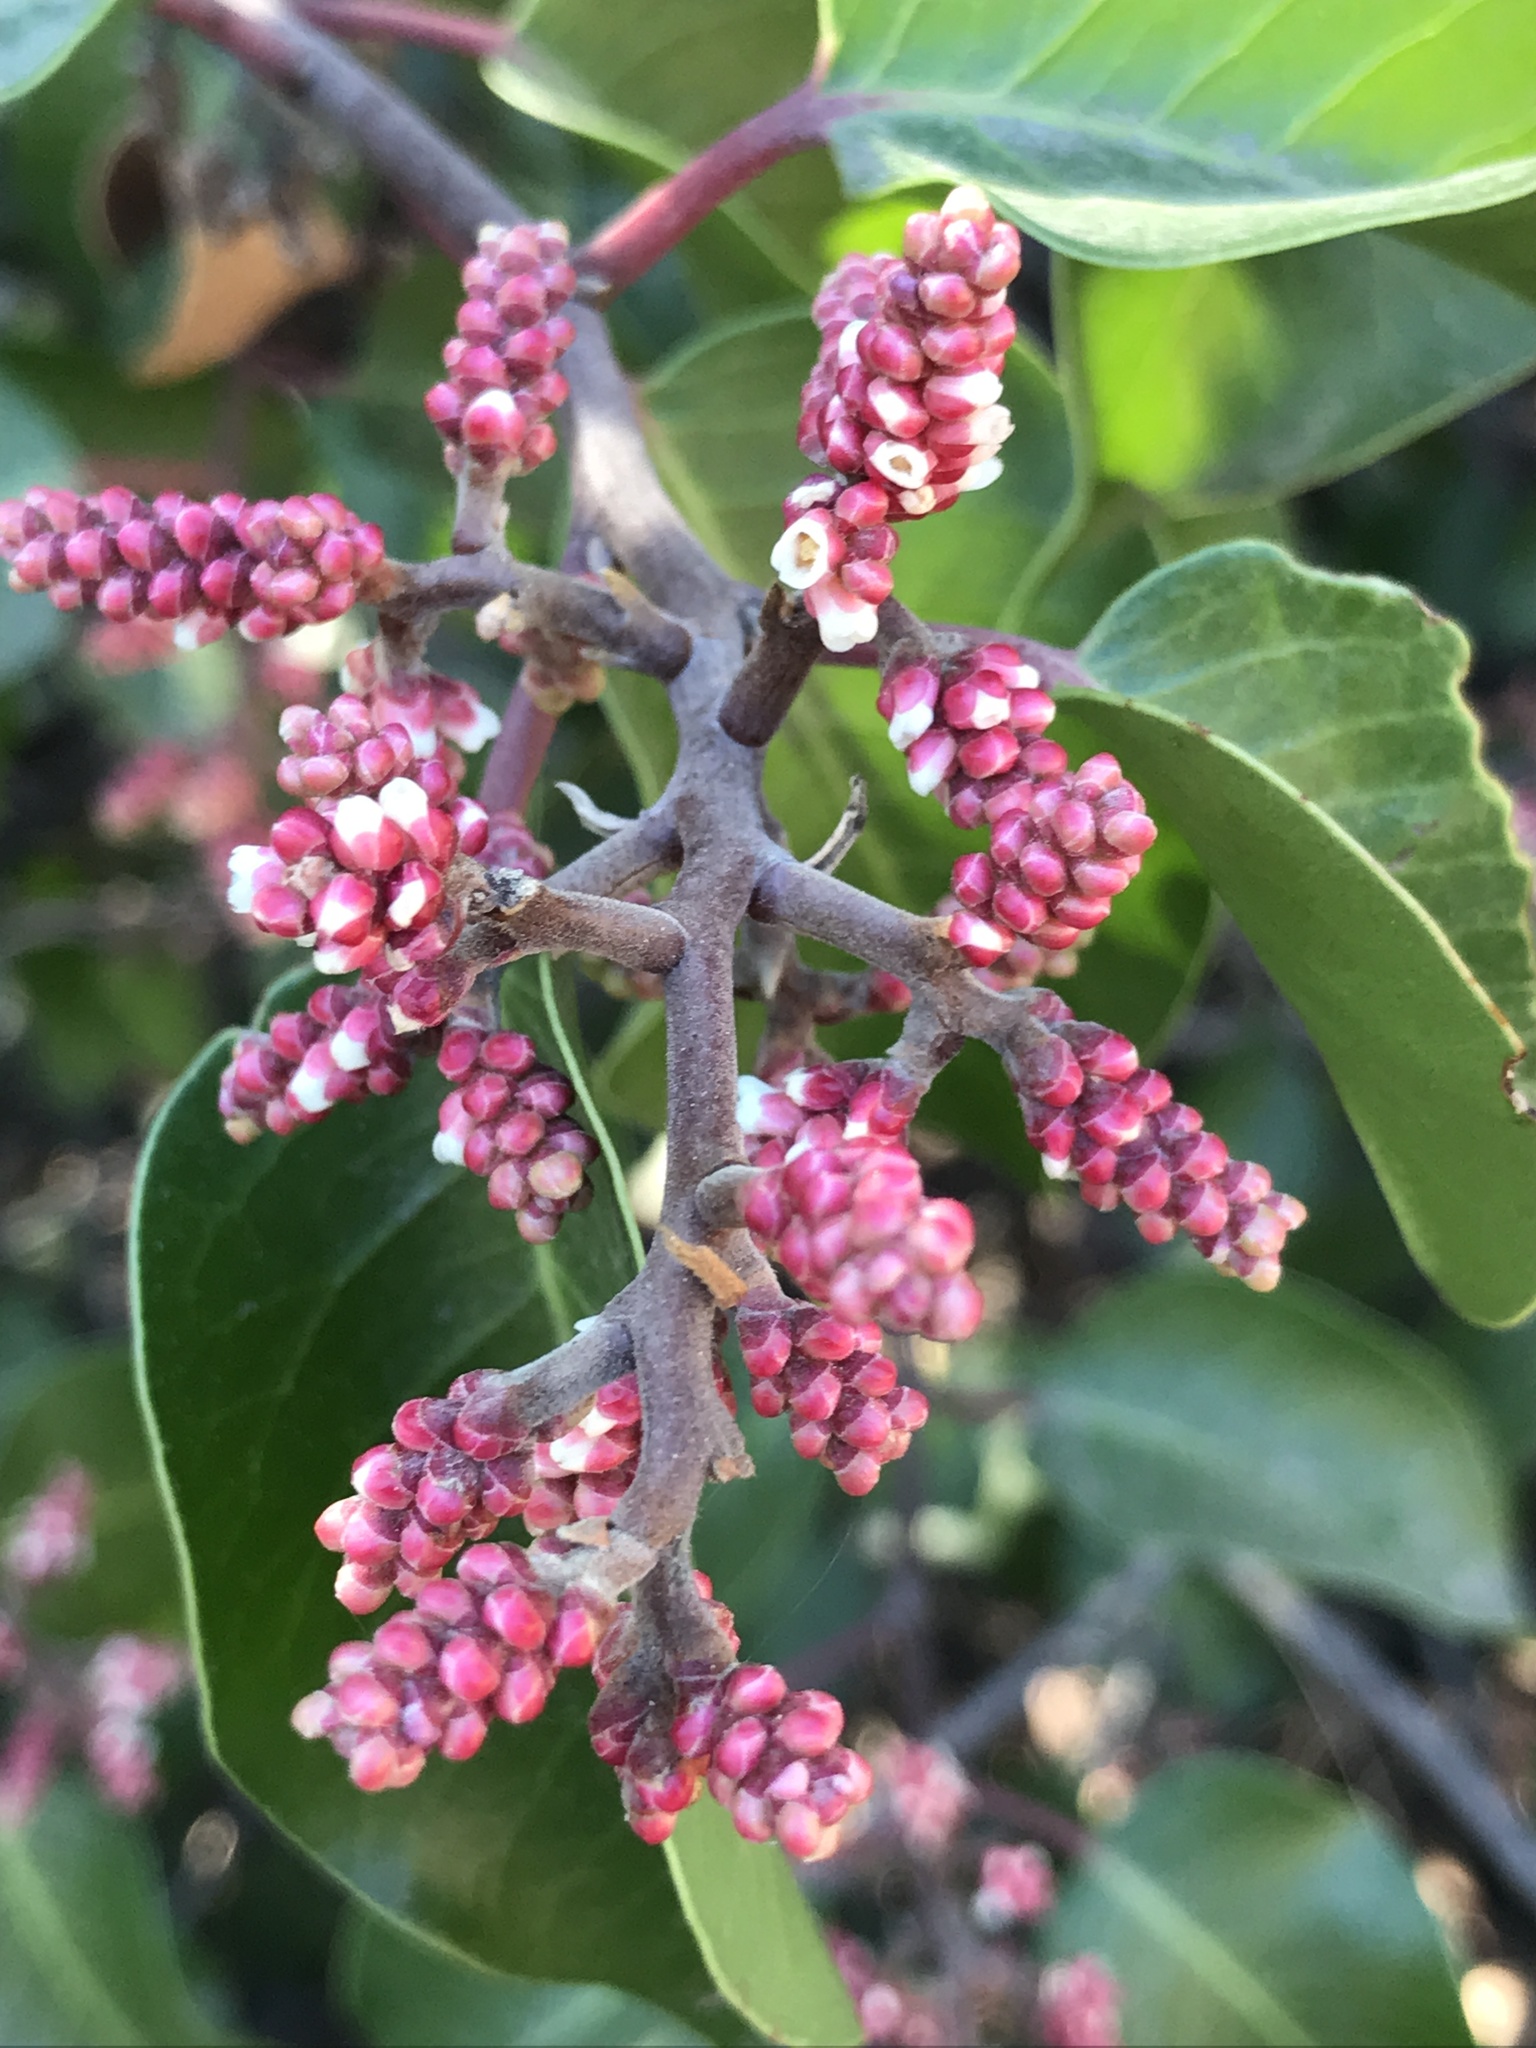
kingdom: Plantae
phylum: Tracheophyta
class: Magnoliopsida
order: Sapindales
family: Anacardiaceae
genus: Rhus
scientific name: Rhus ovata
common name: Sugar sumac
